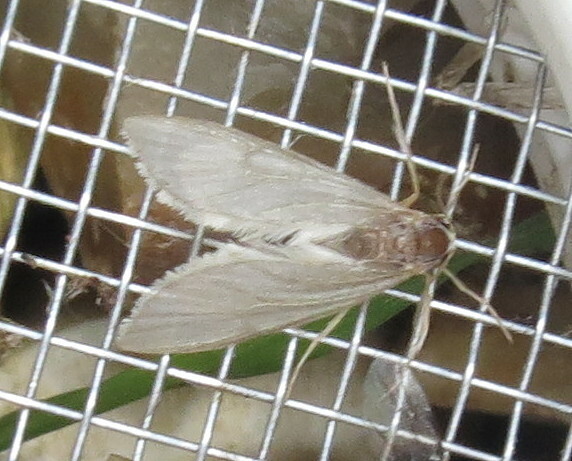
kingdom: Animalia
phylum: Arthropoda
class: Insecta
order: Lepidoptera
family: Crambidae
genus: Acentria
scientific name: Acentria ephemerella
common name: European water moth
